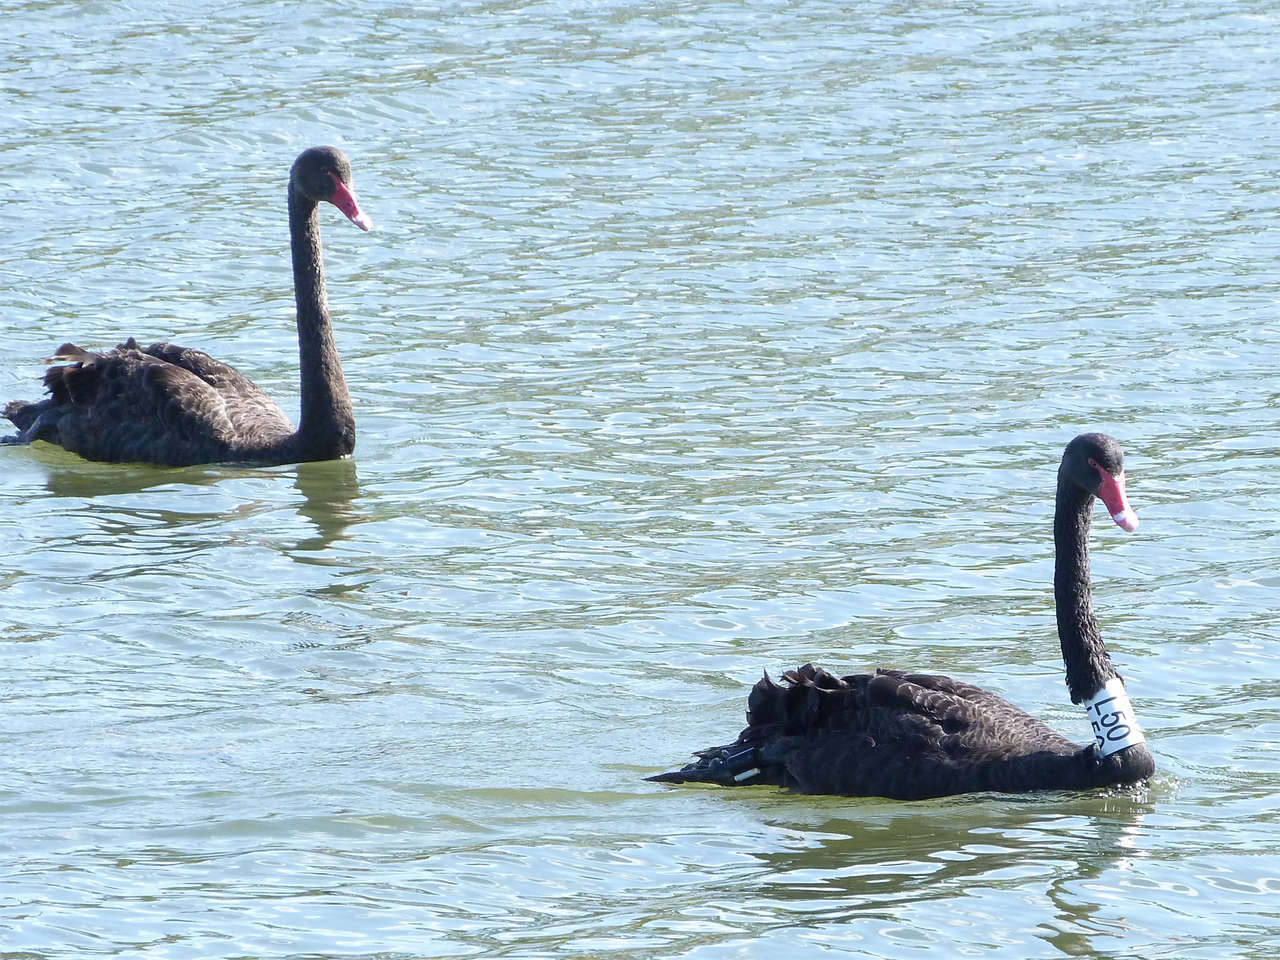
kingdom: Animalia
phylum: Chordata
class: Aves
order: Anseriformes
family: Anatidae
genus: Cygnus
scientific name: Cygnus atratus
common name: Black swan
